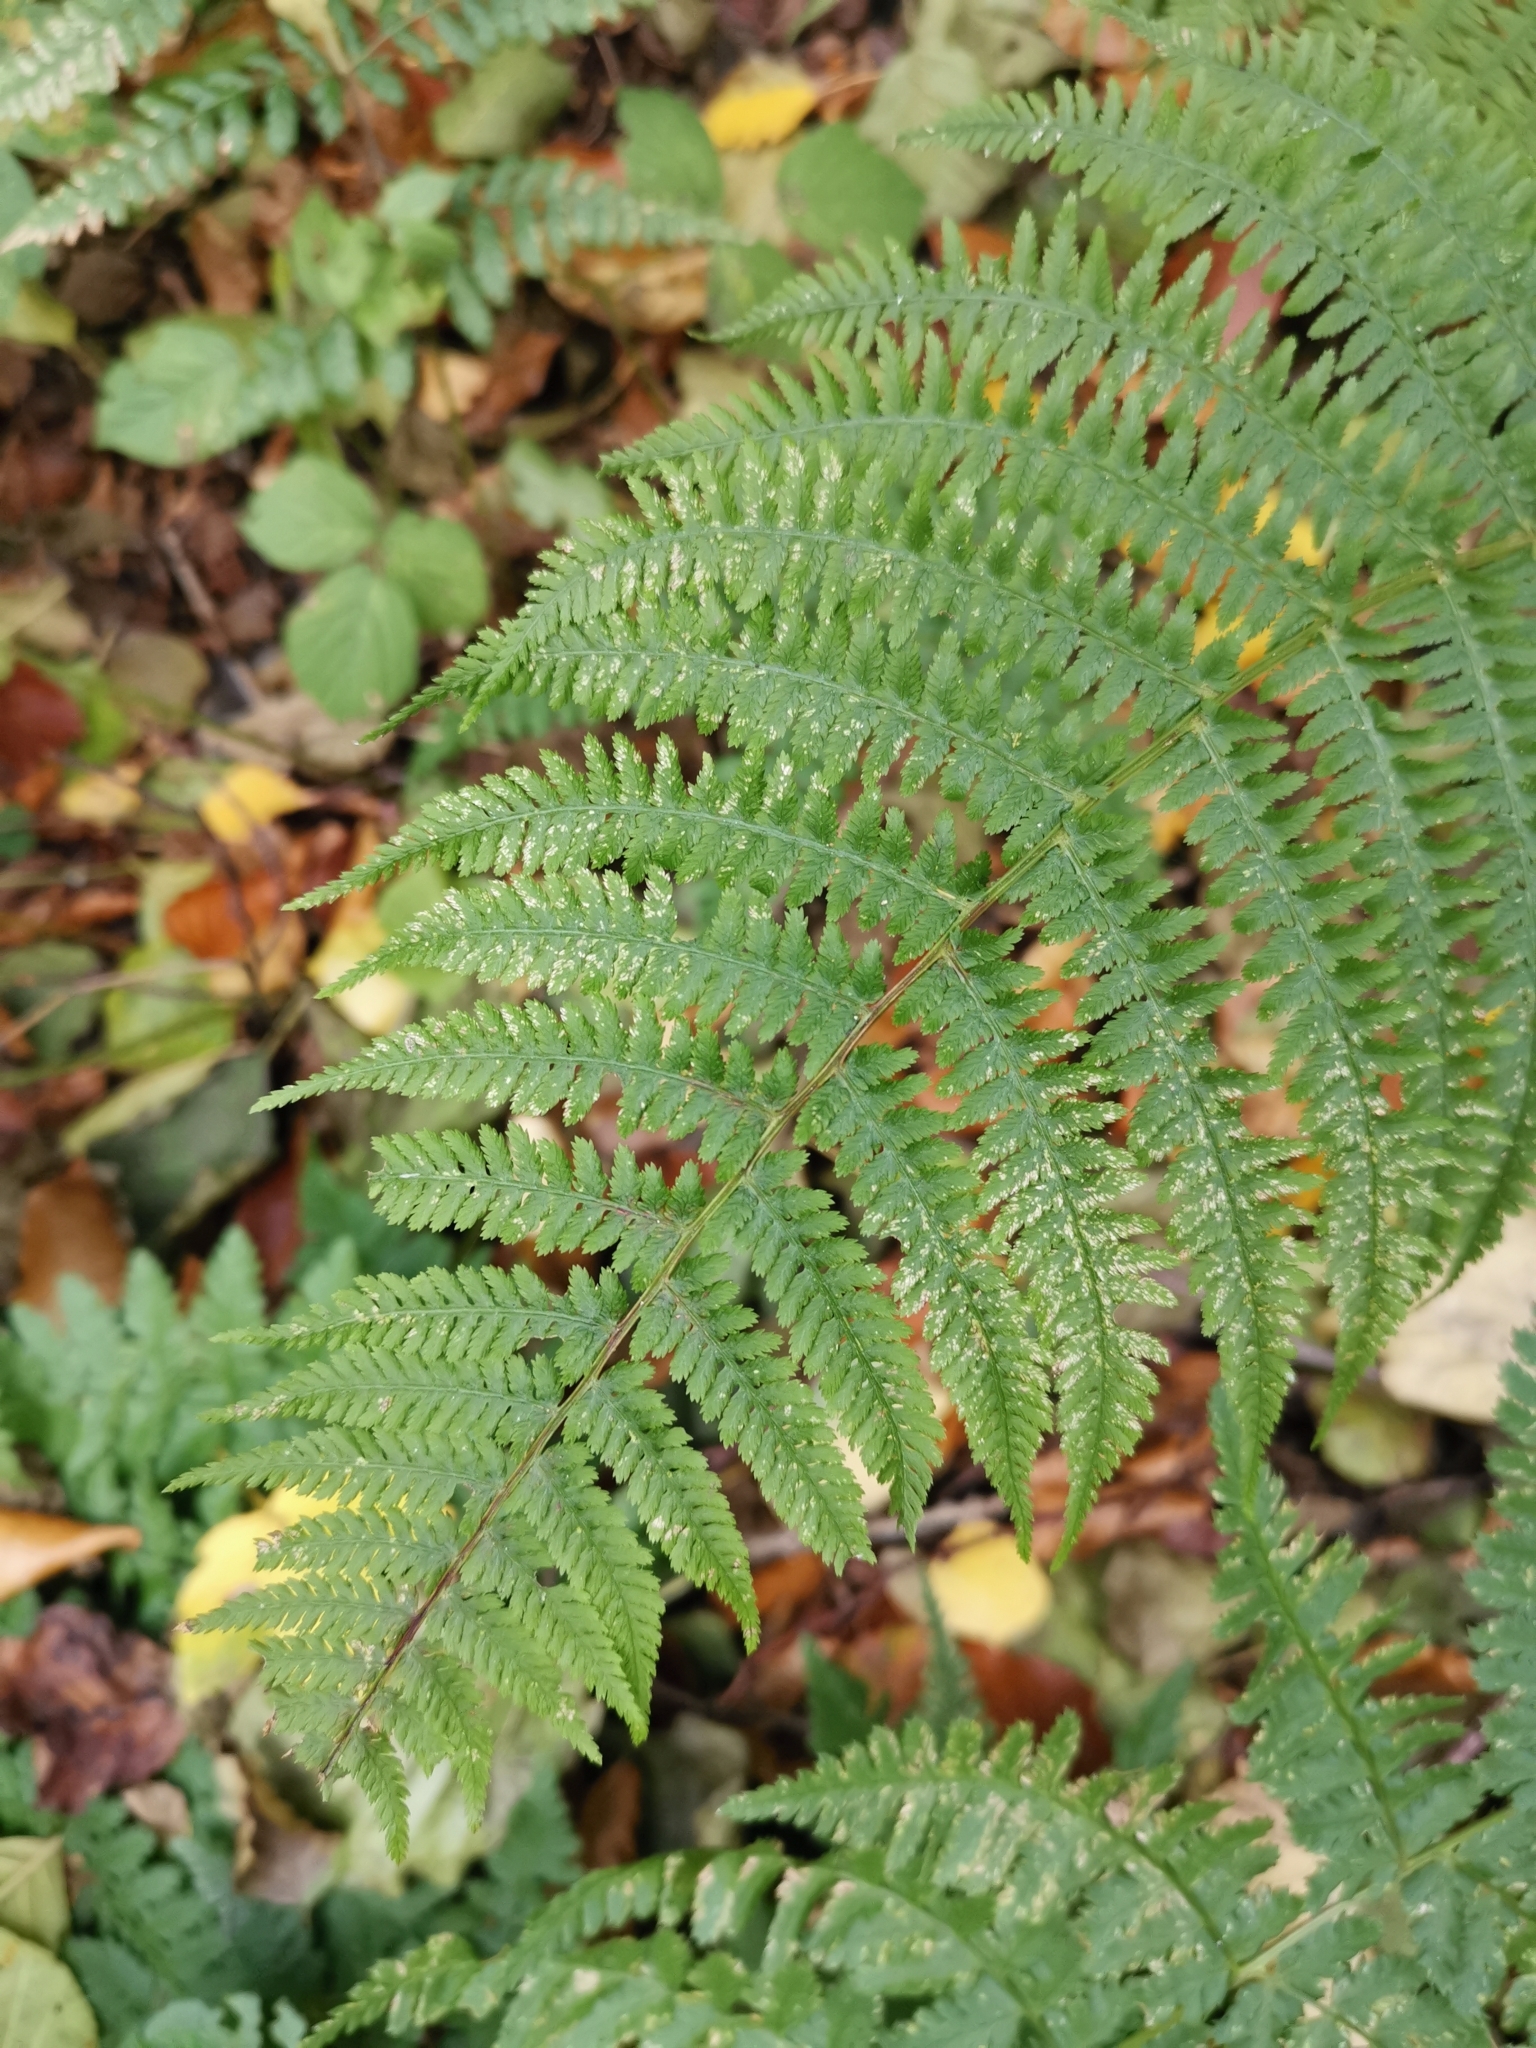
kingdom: Plantae
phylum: Tracheophyta
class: Polypodiopsida
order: Polypodiales
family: Athyriaceae
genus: Athyrium
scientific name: Athyrium filix-femina
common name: Lady fern
